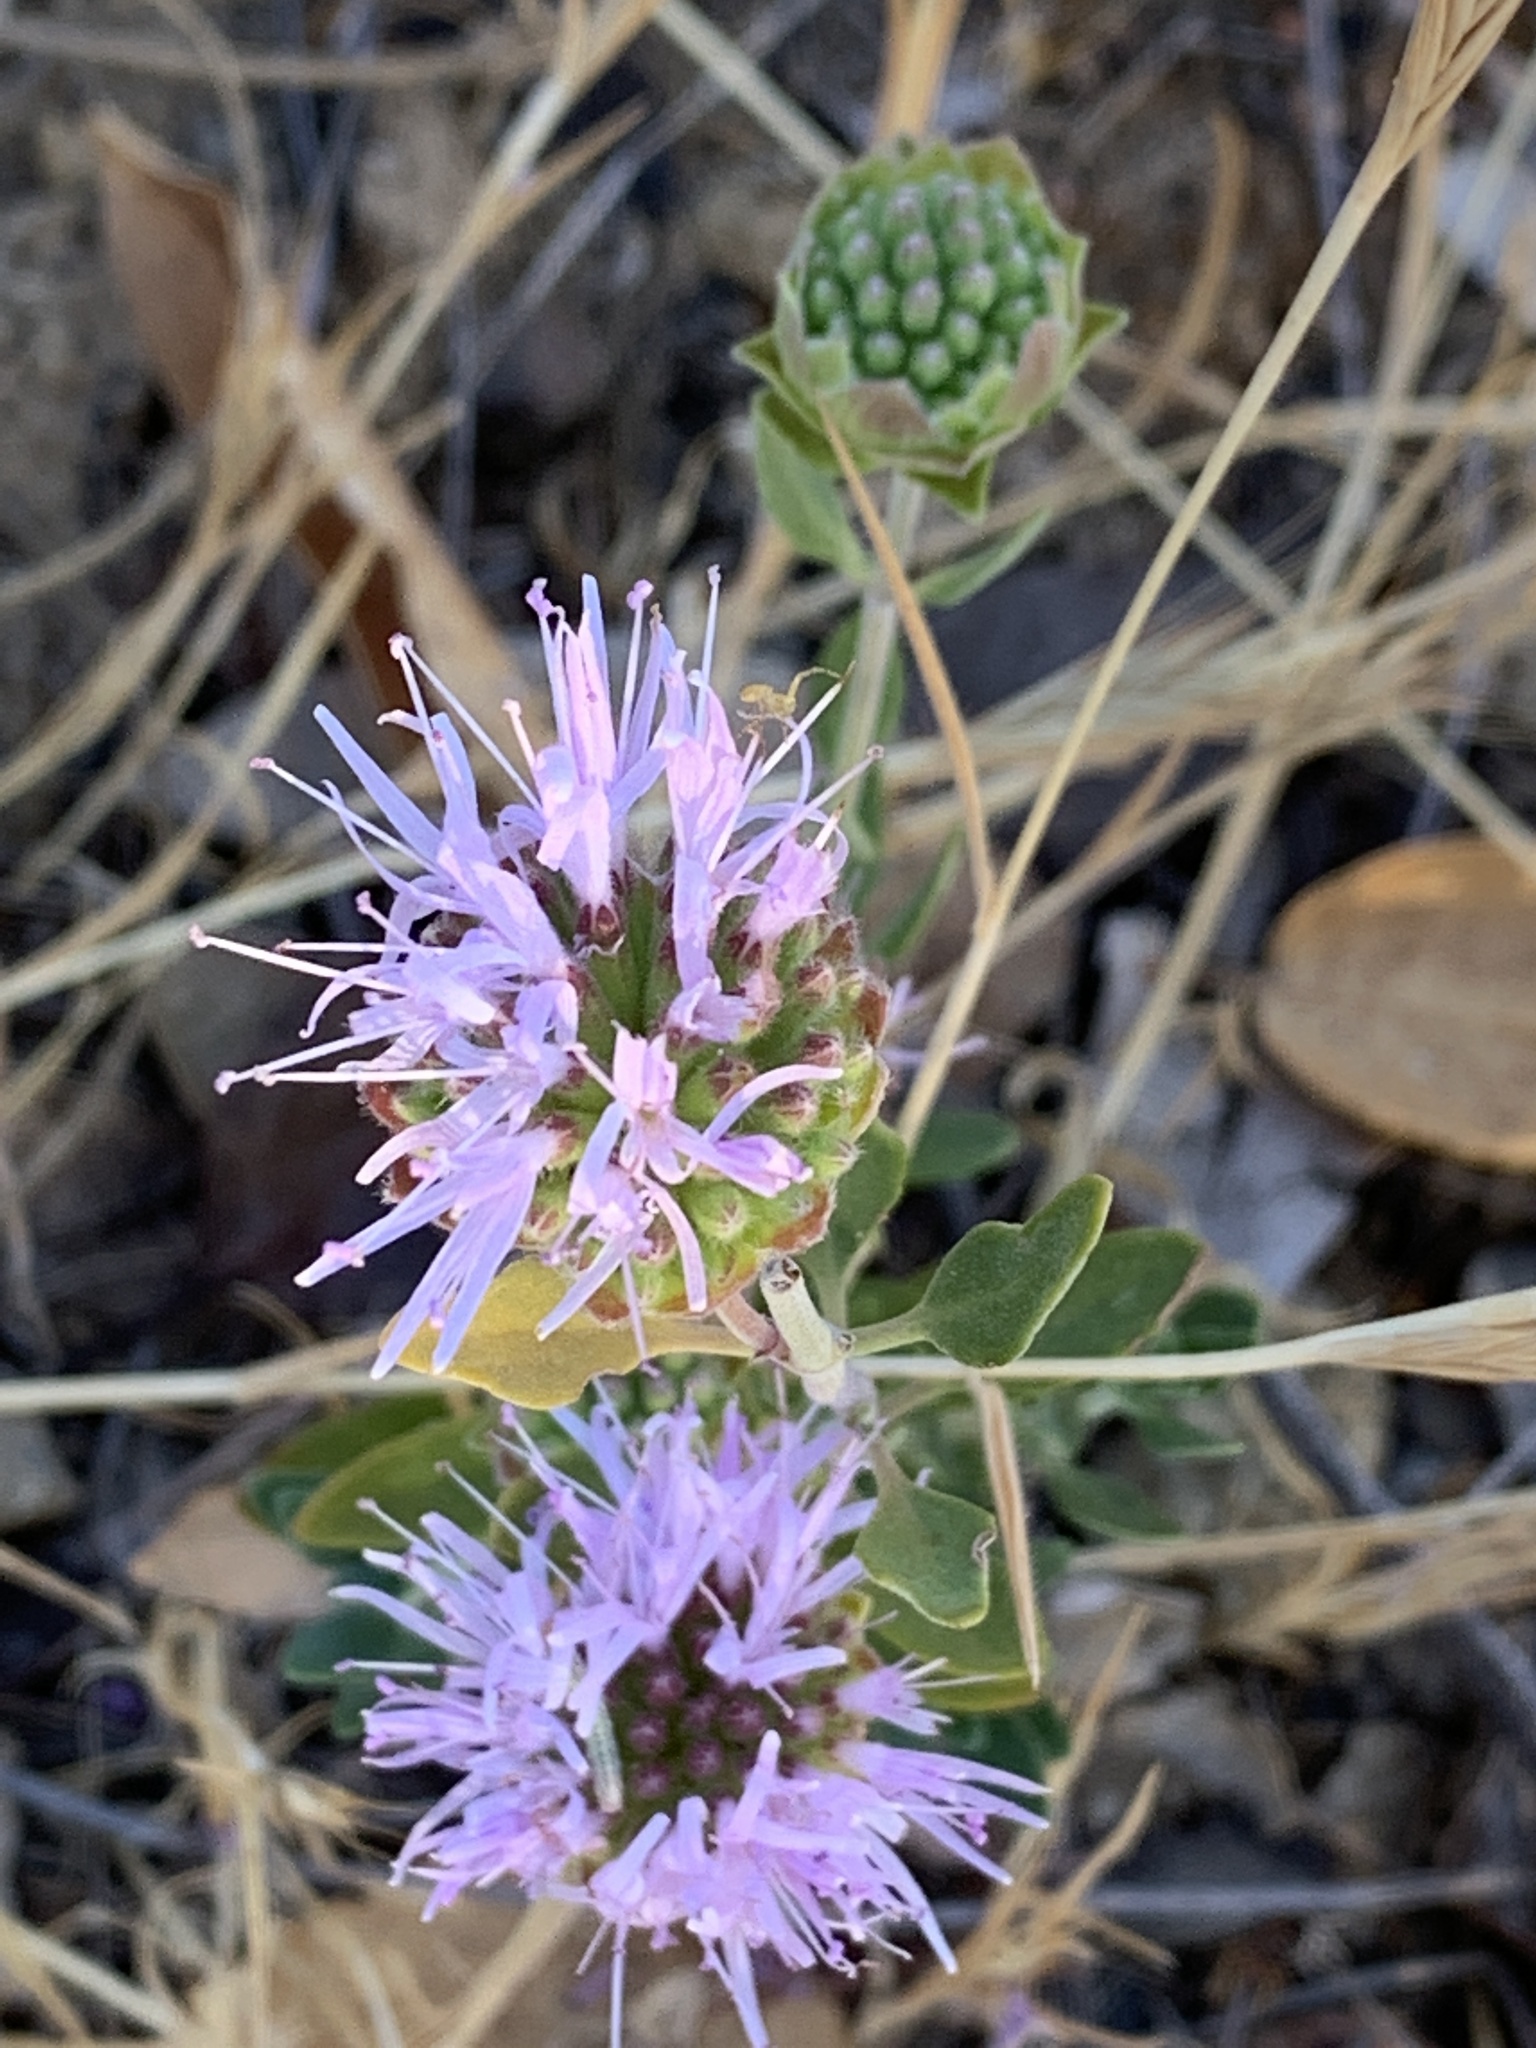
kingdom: Plantae
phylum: Tracheophyta
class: Magnoliopsida
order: Lamiales
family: Lamiaceae
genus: Monardella
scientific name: Monardella odoratissima
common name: Pacific monardella
